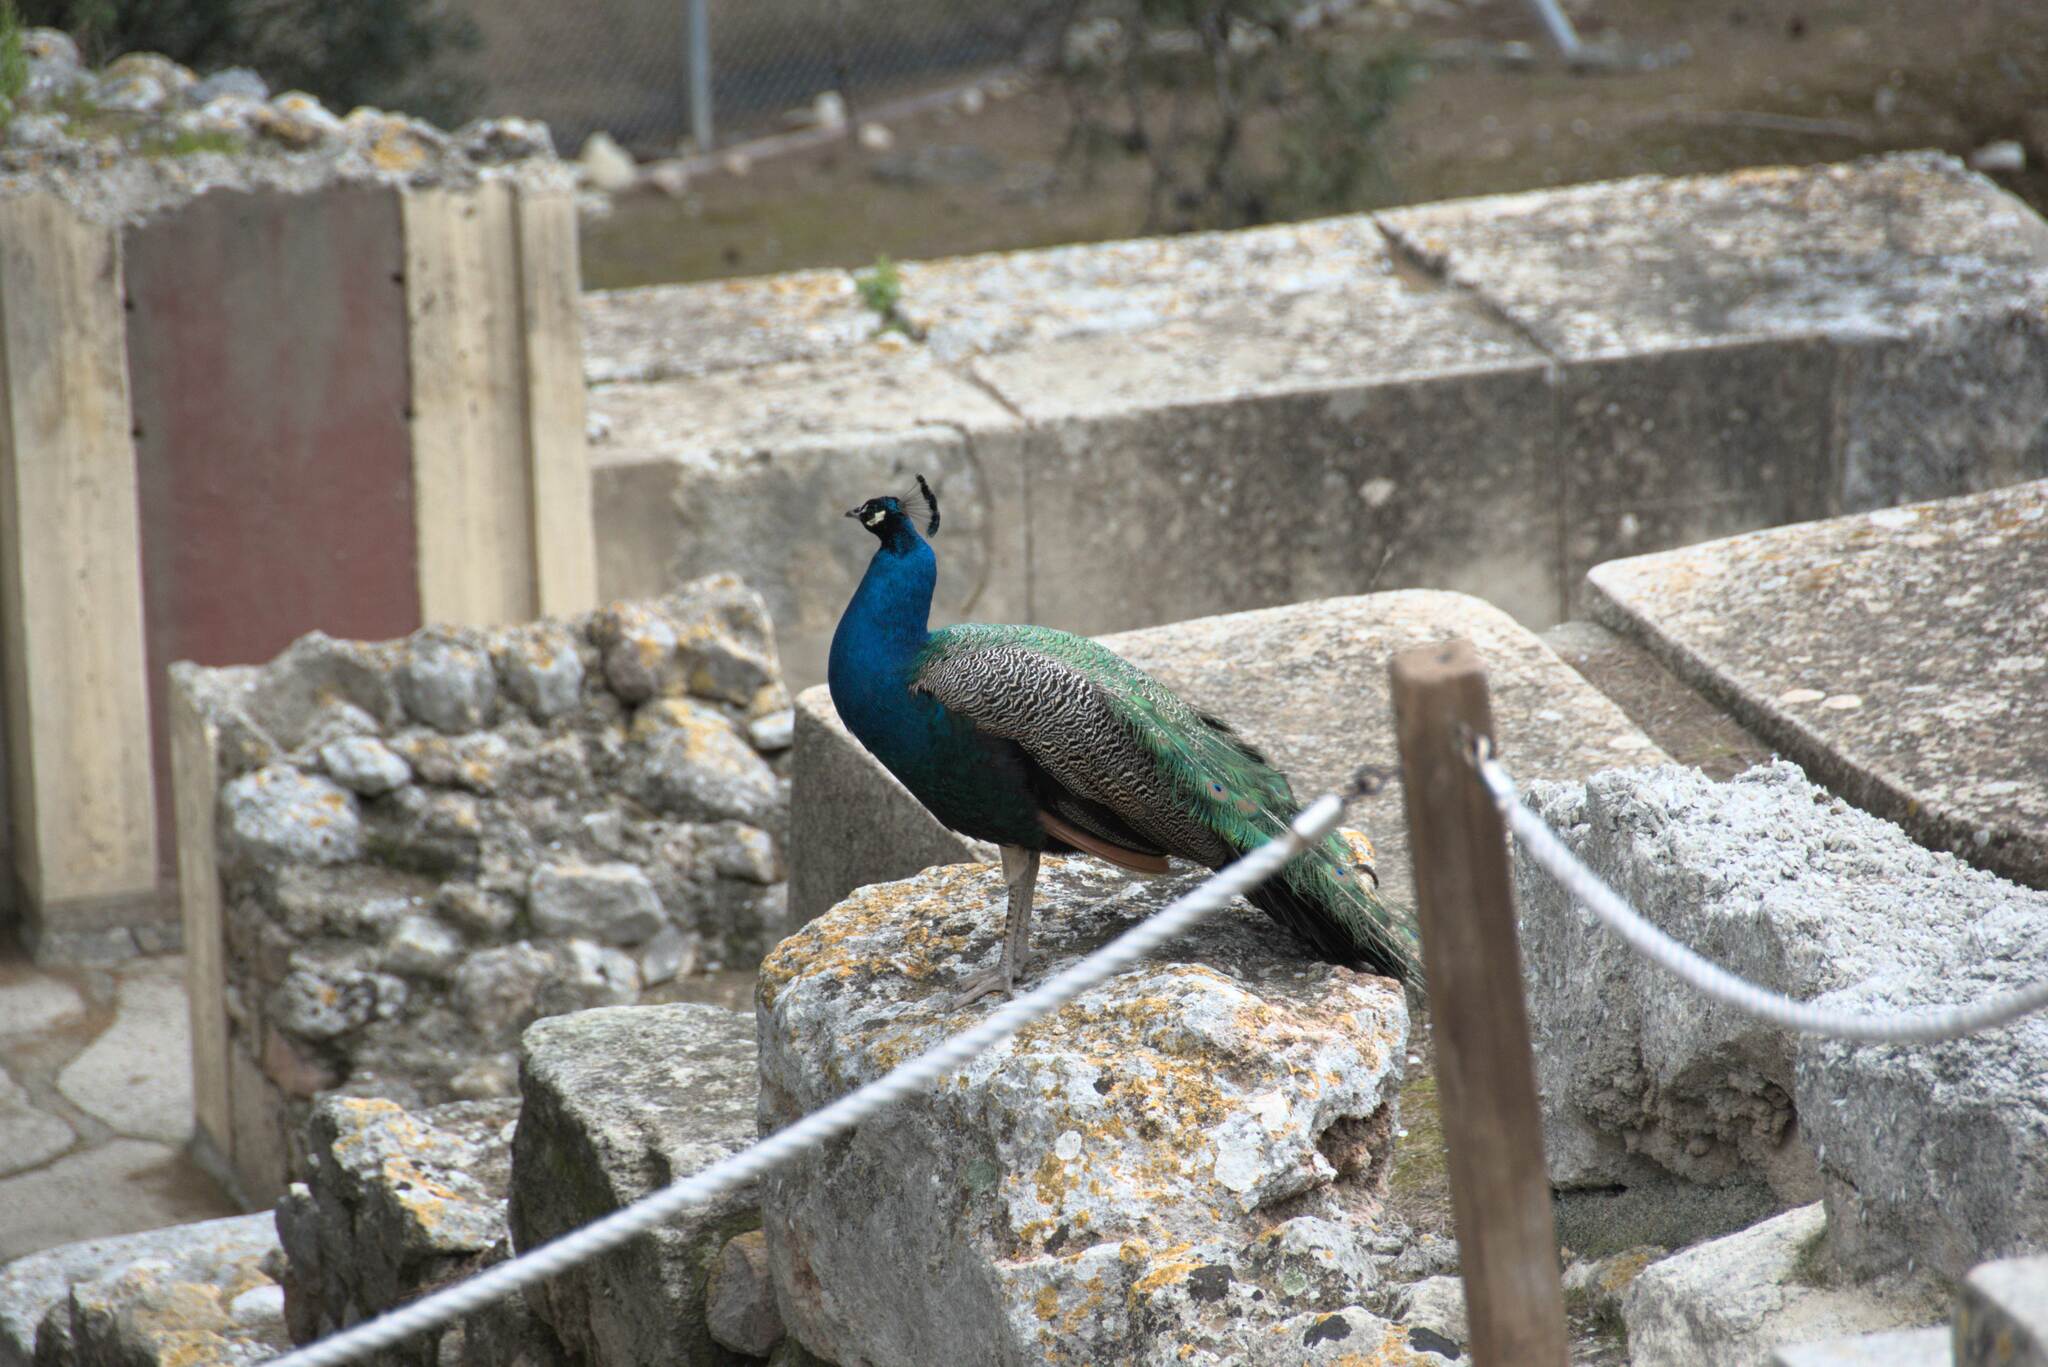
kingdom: Animalia
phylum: Chordata
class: Aves
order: Galliformes
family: Phasianidae
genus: Pavo
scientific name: Pavo cristatus
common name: Indian peafowl
